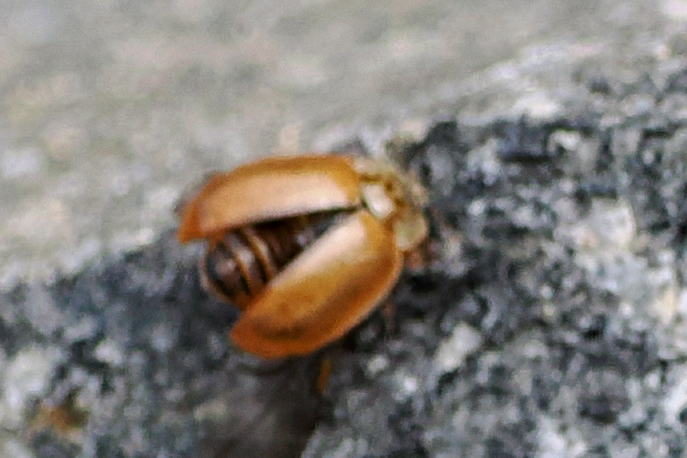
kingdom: Animalia
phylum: Arthropoda
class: Insecta
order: Coleoptera
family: Coccinellidae
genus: Aphidecta
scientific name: Aphidecta obliterata
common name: Larch ladybird
